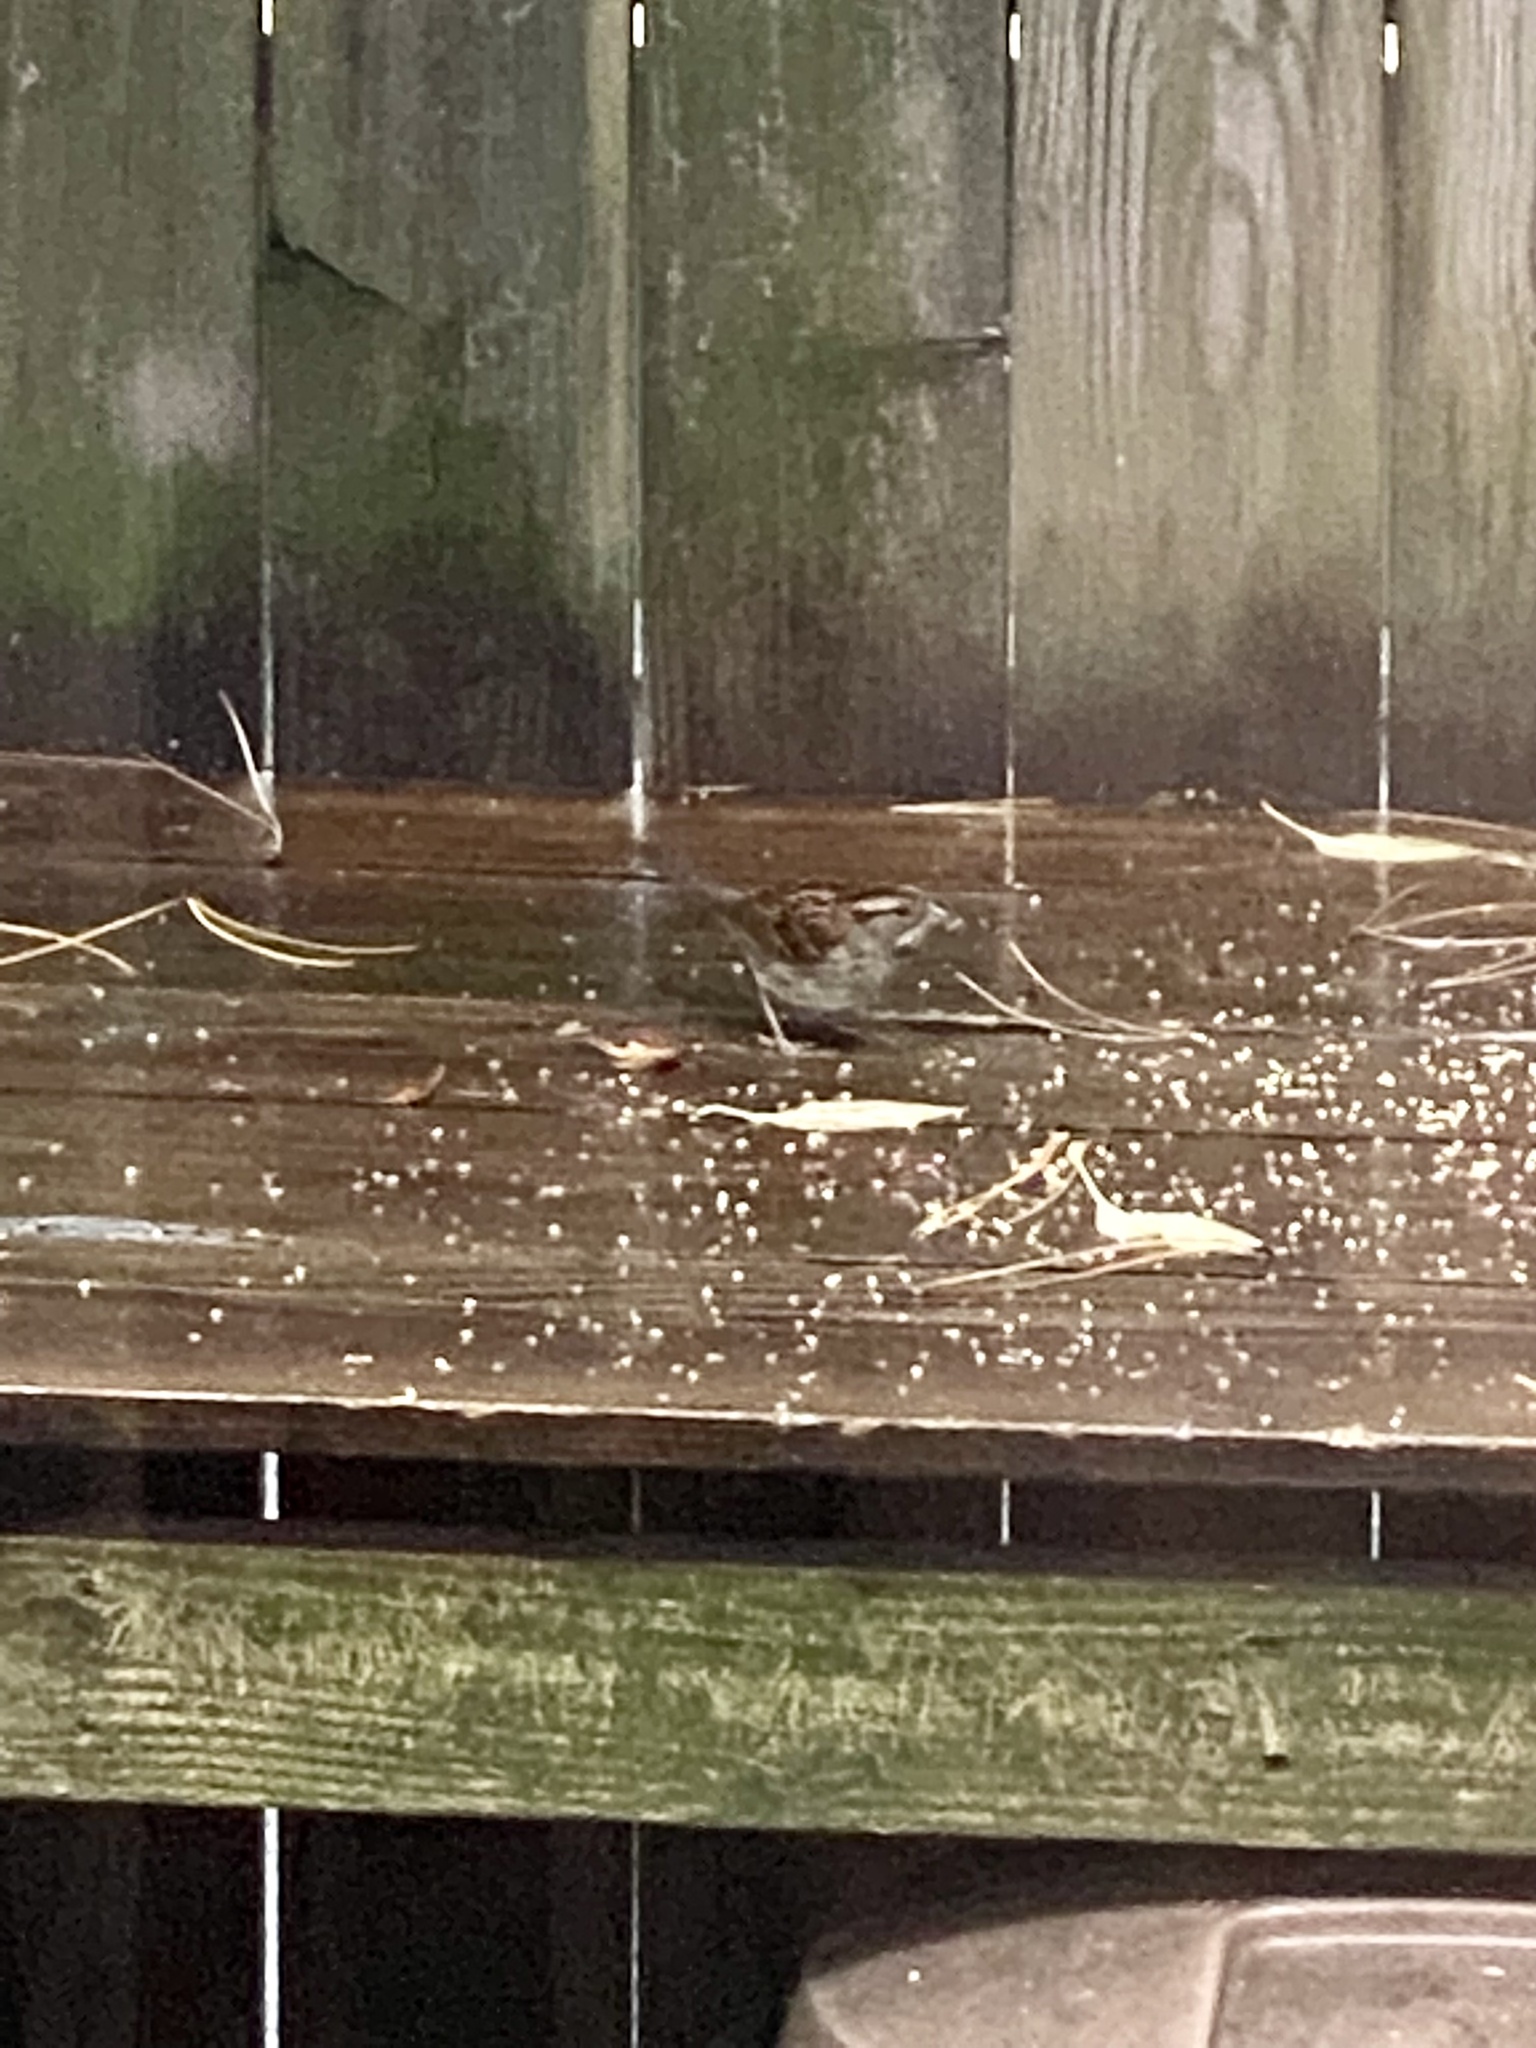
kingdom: Animalia
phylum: Chordata
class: Aves
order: Passeriformes
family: Passerellidae
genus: Zonotrichia
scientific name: Zonotrichia albicollis
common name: White-throated sparrow
